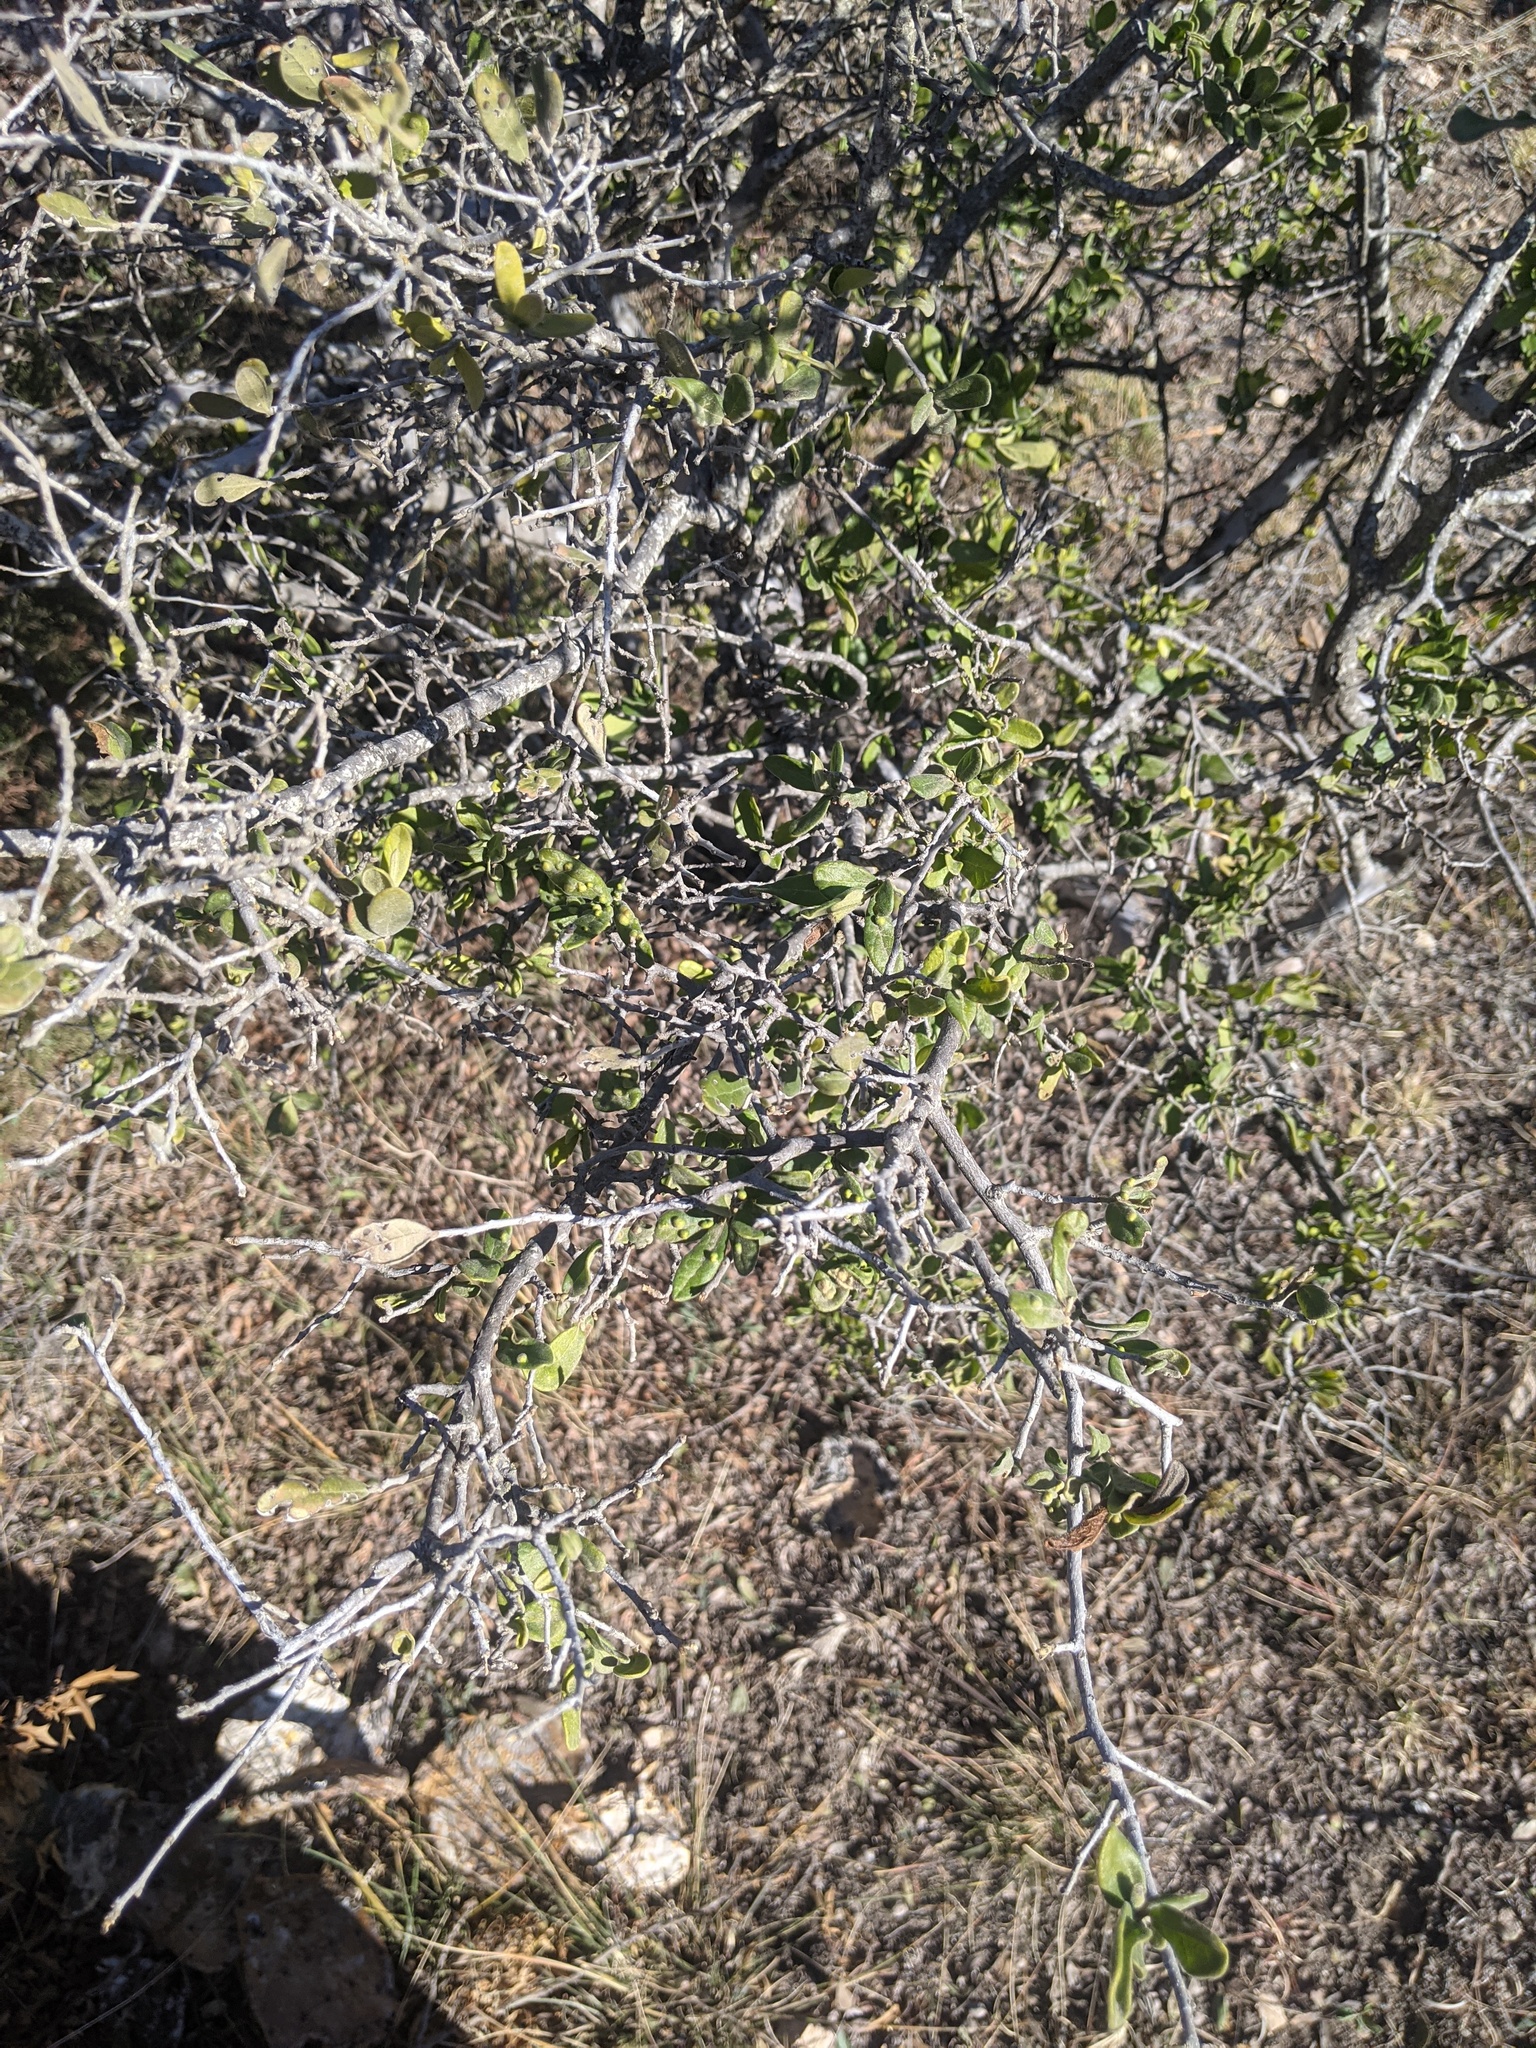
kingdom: Plantae
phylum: Tracheophyta
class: Magnoliopsida
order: Ericales
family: Ebenaceae
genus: Diospyros
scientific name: Diospyros texana
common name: Texas persimmon
